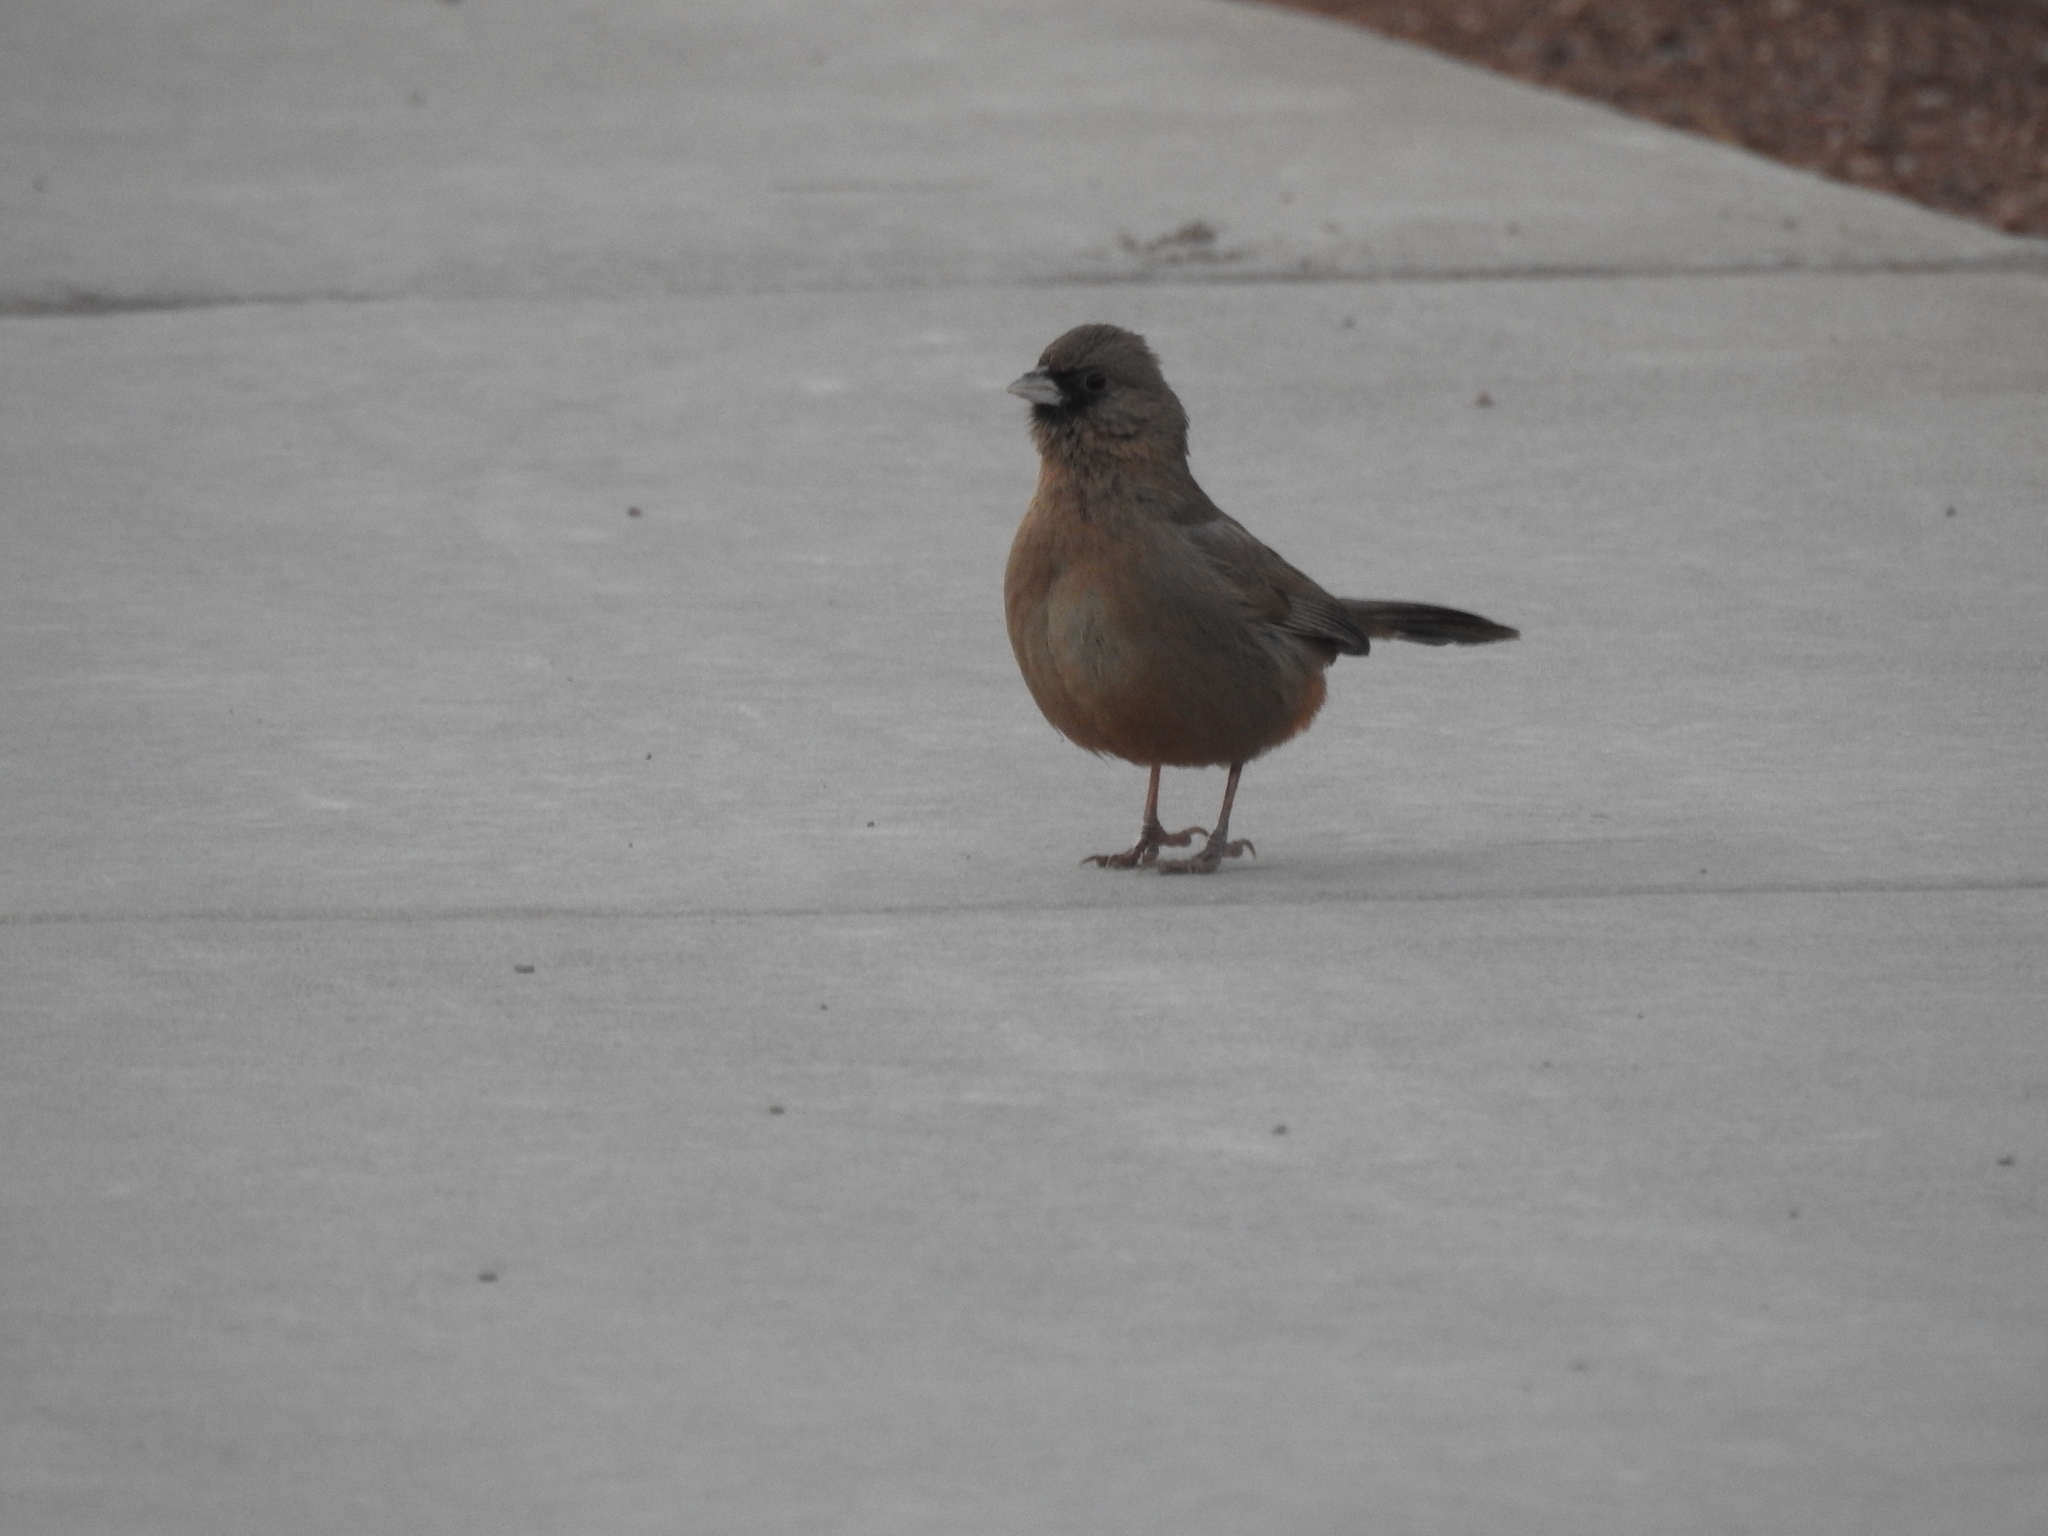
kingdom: Animalia
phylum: Chordata
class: Aves
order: Passeriformes
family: Passerellidae
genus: Melozone
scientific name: Melozone aberti
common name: Abert's towhee
